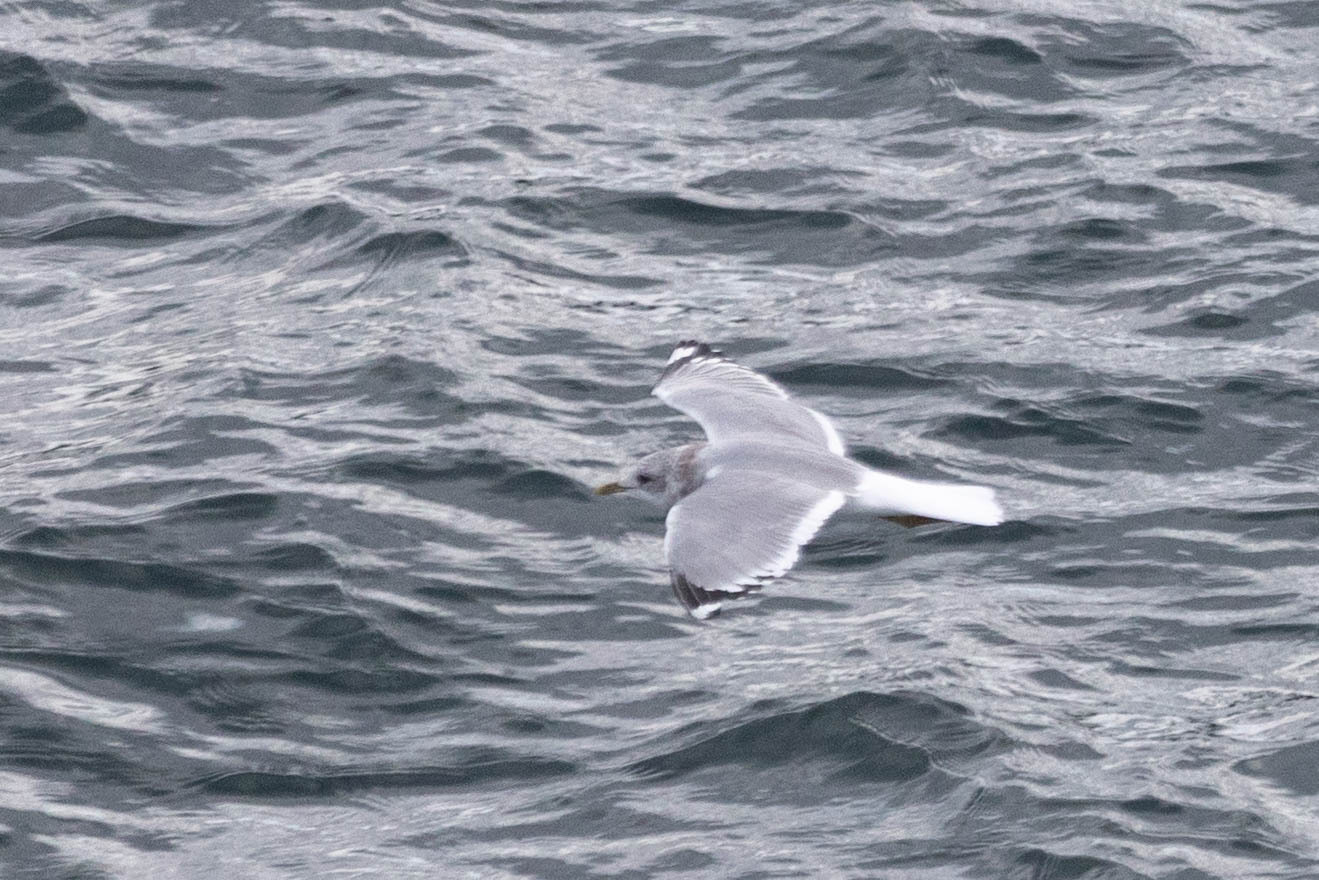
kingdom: Animalia
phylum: Chordata
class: Aves
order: Charadriiformes
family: Laridae
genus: Larus
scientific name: Larus brachyrhynchus
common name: Short-billed gull
